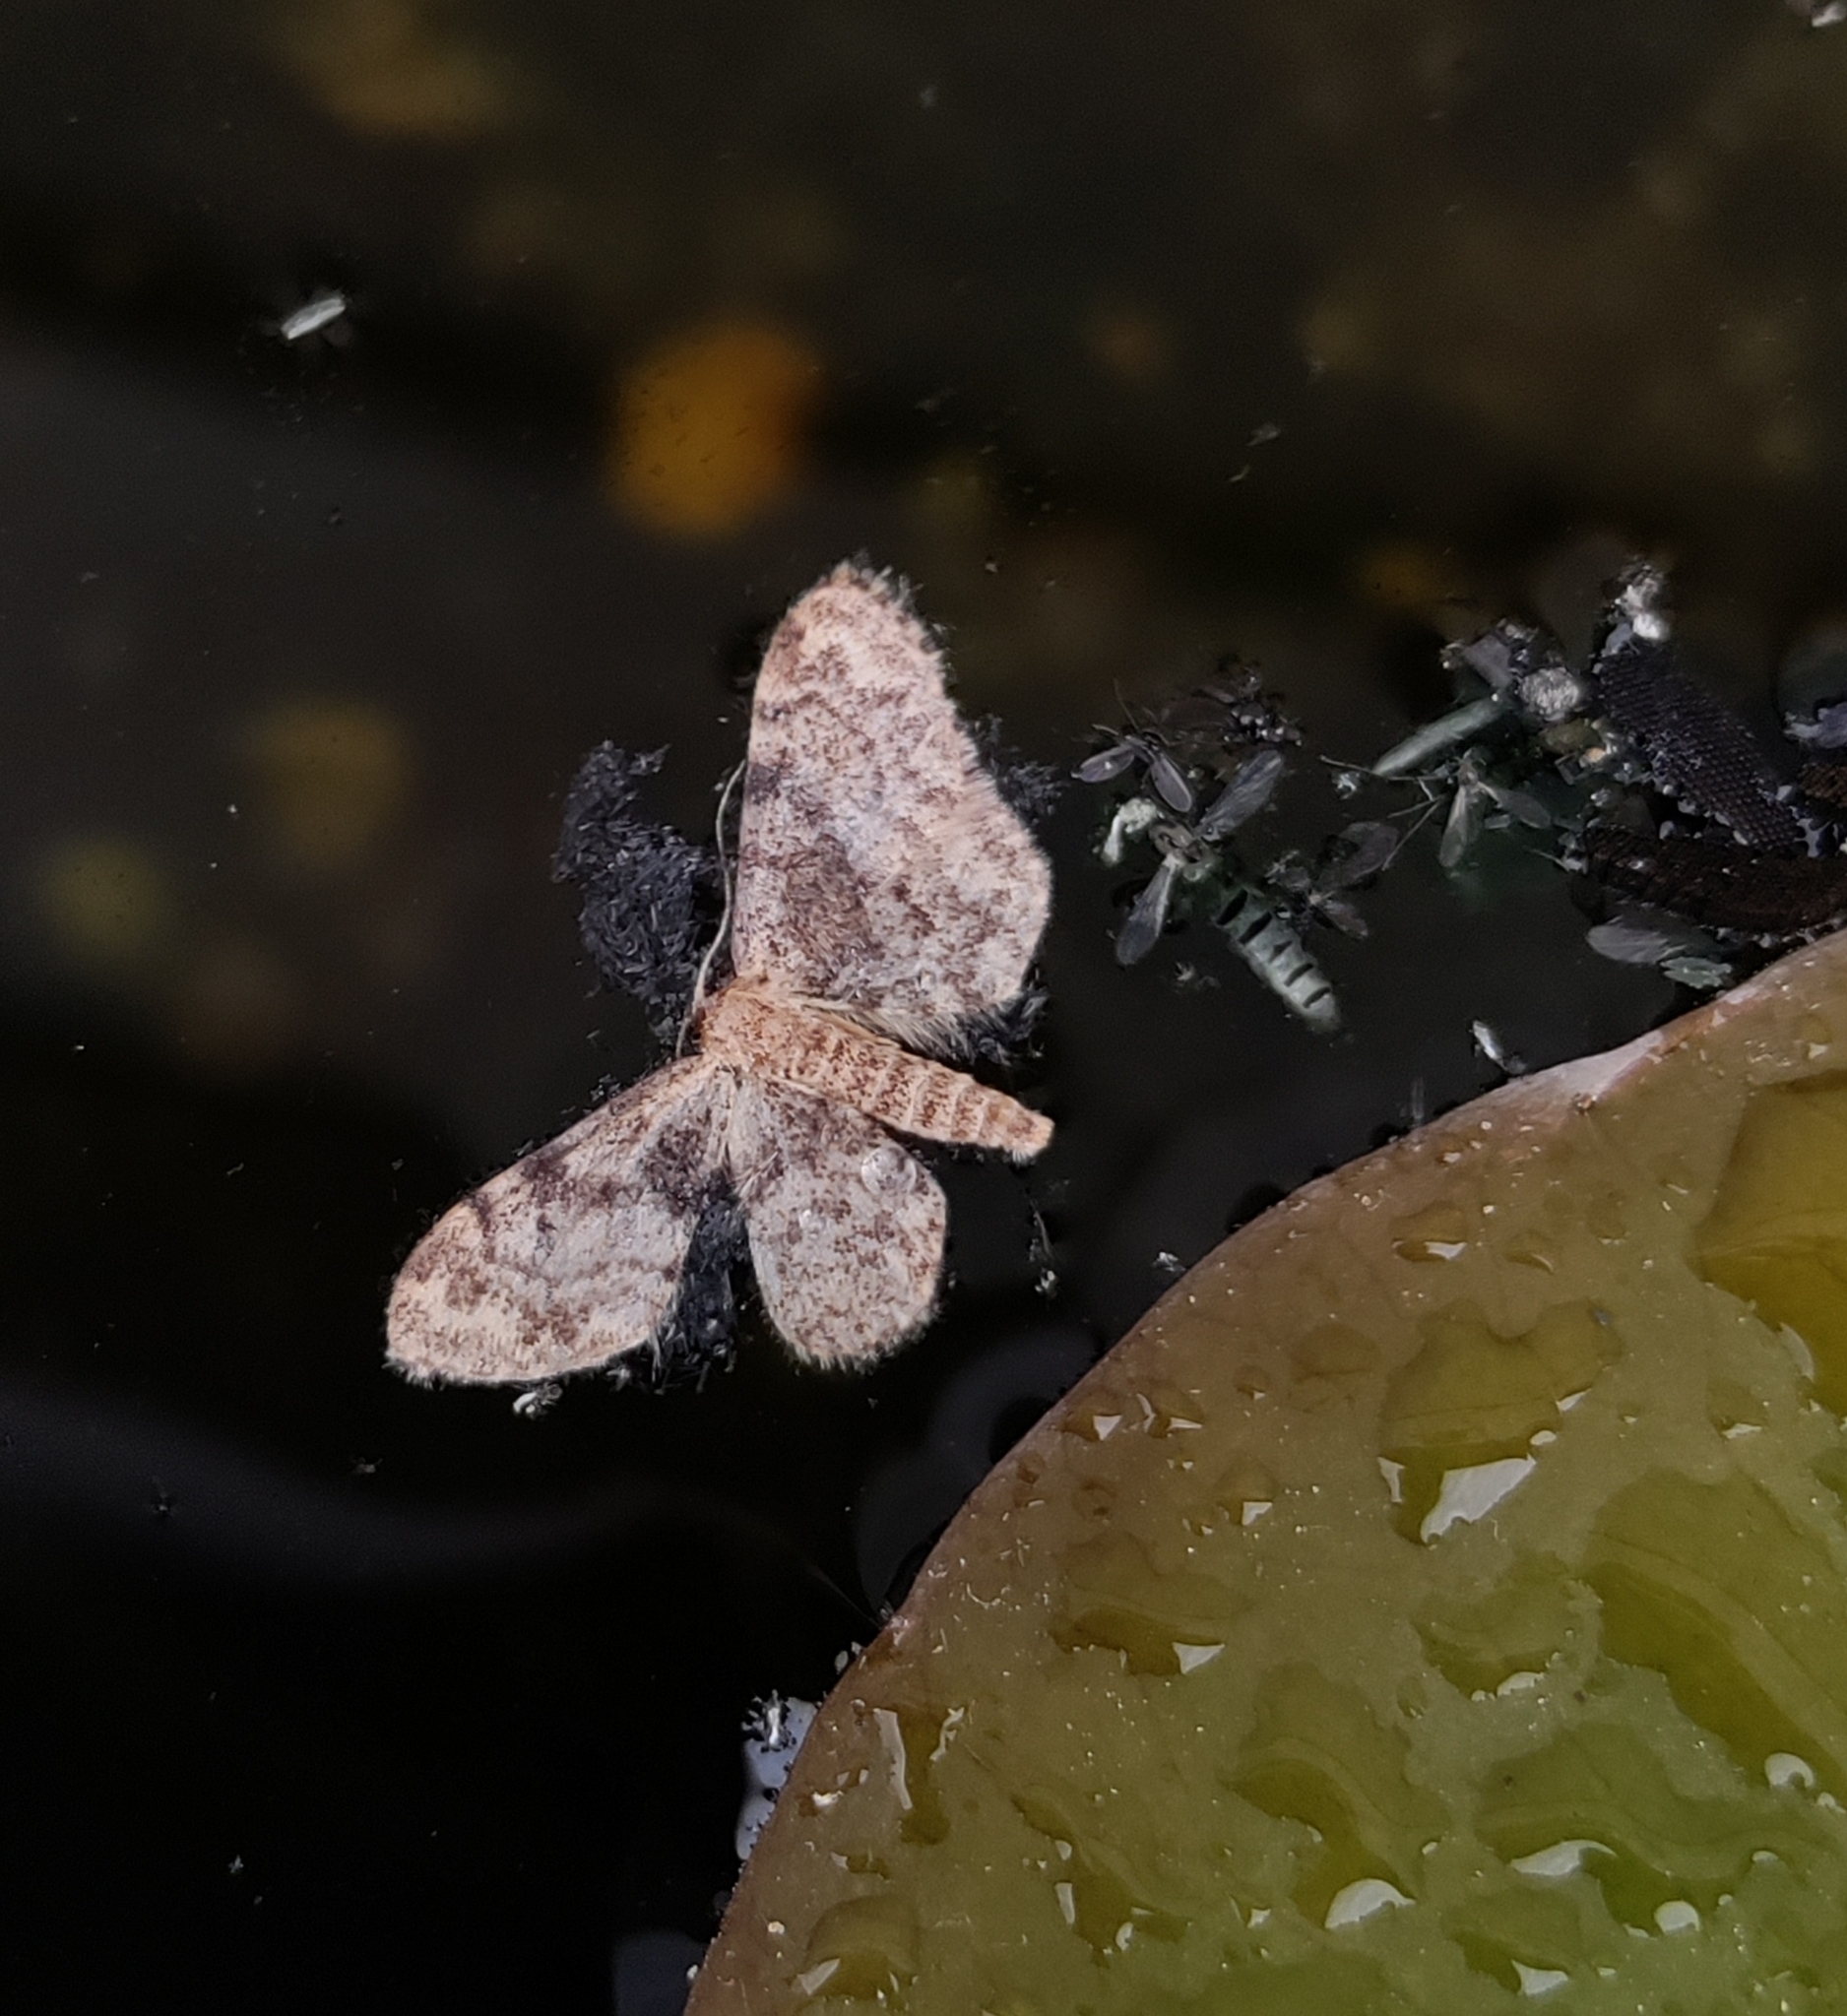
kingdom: Animalia
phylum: Arthropoda
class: Insecta
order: Lepidoptera
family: Geometridae
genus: Idaea
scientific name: Idaea inquinata
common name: Rusty wave
